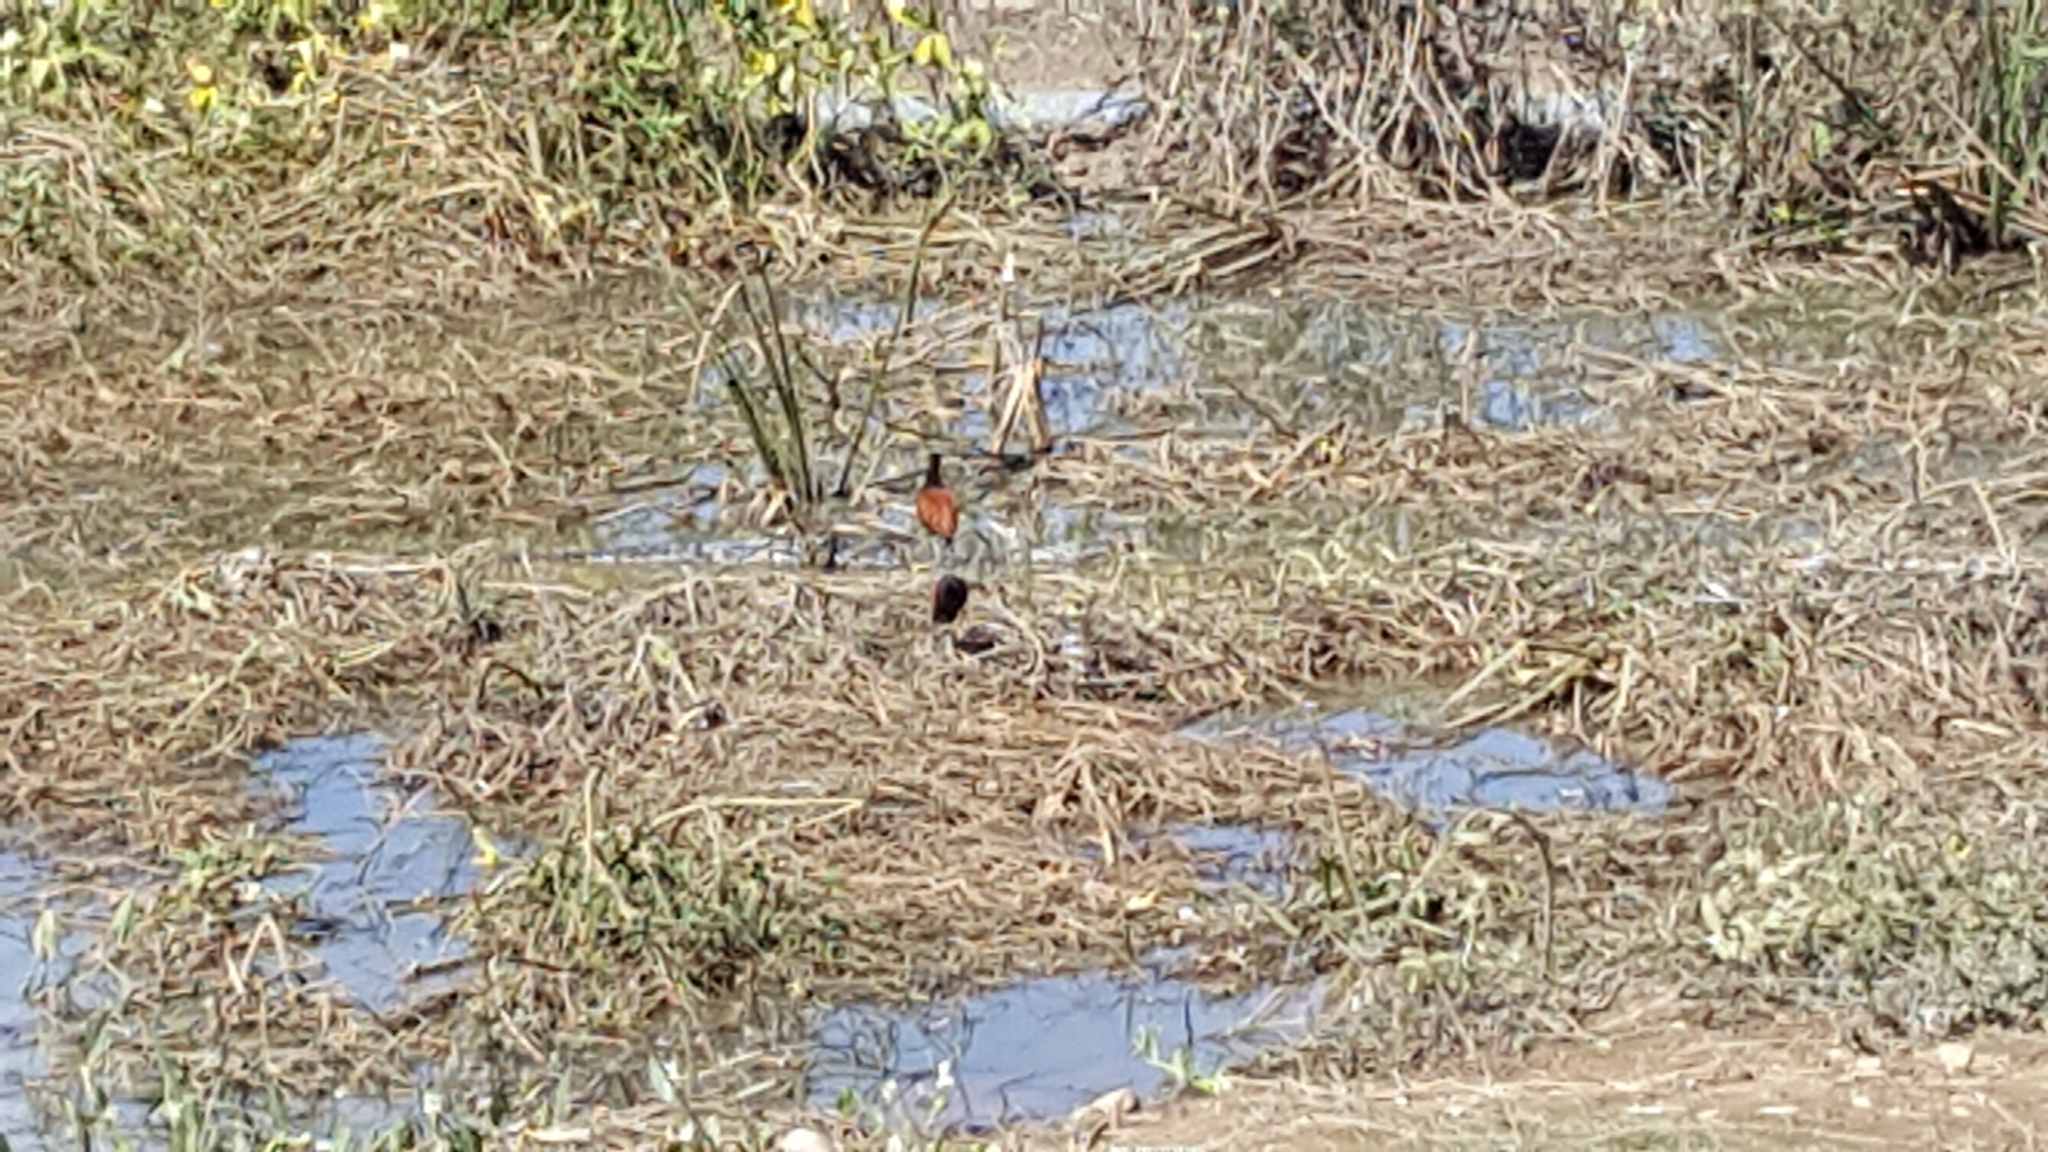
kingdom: Animalia
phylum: Chordata
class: Aves
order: Charadriiformes
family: Jacanidae
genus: Jacana
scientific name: Jacana jacana
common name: Wattled jacana
